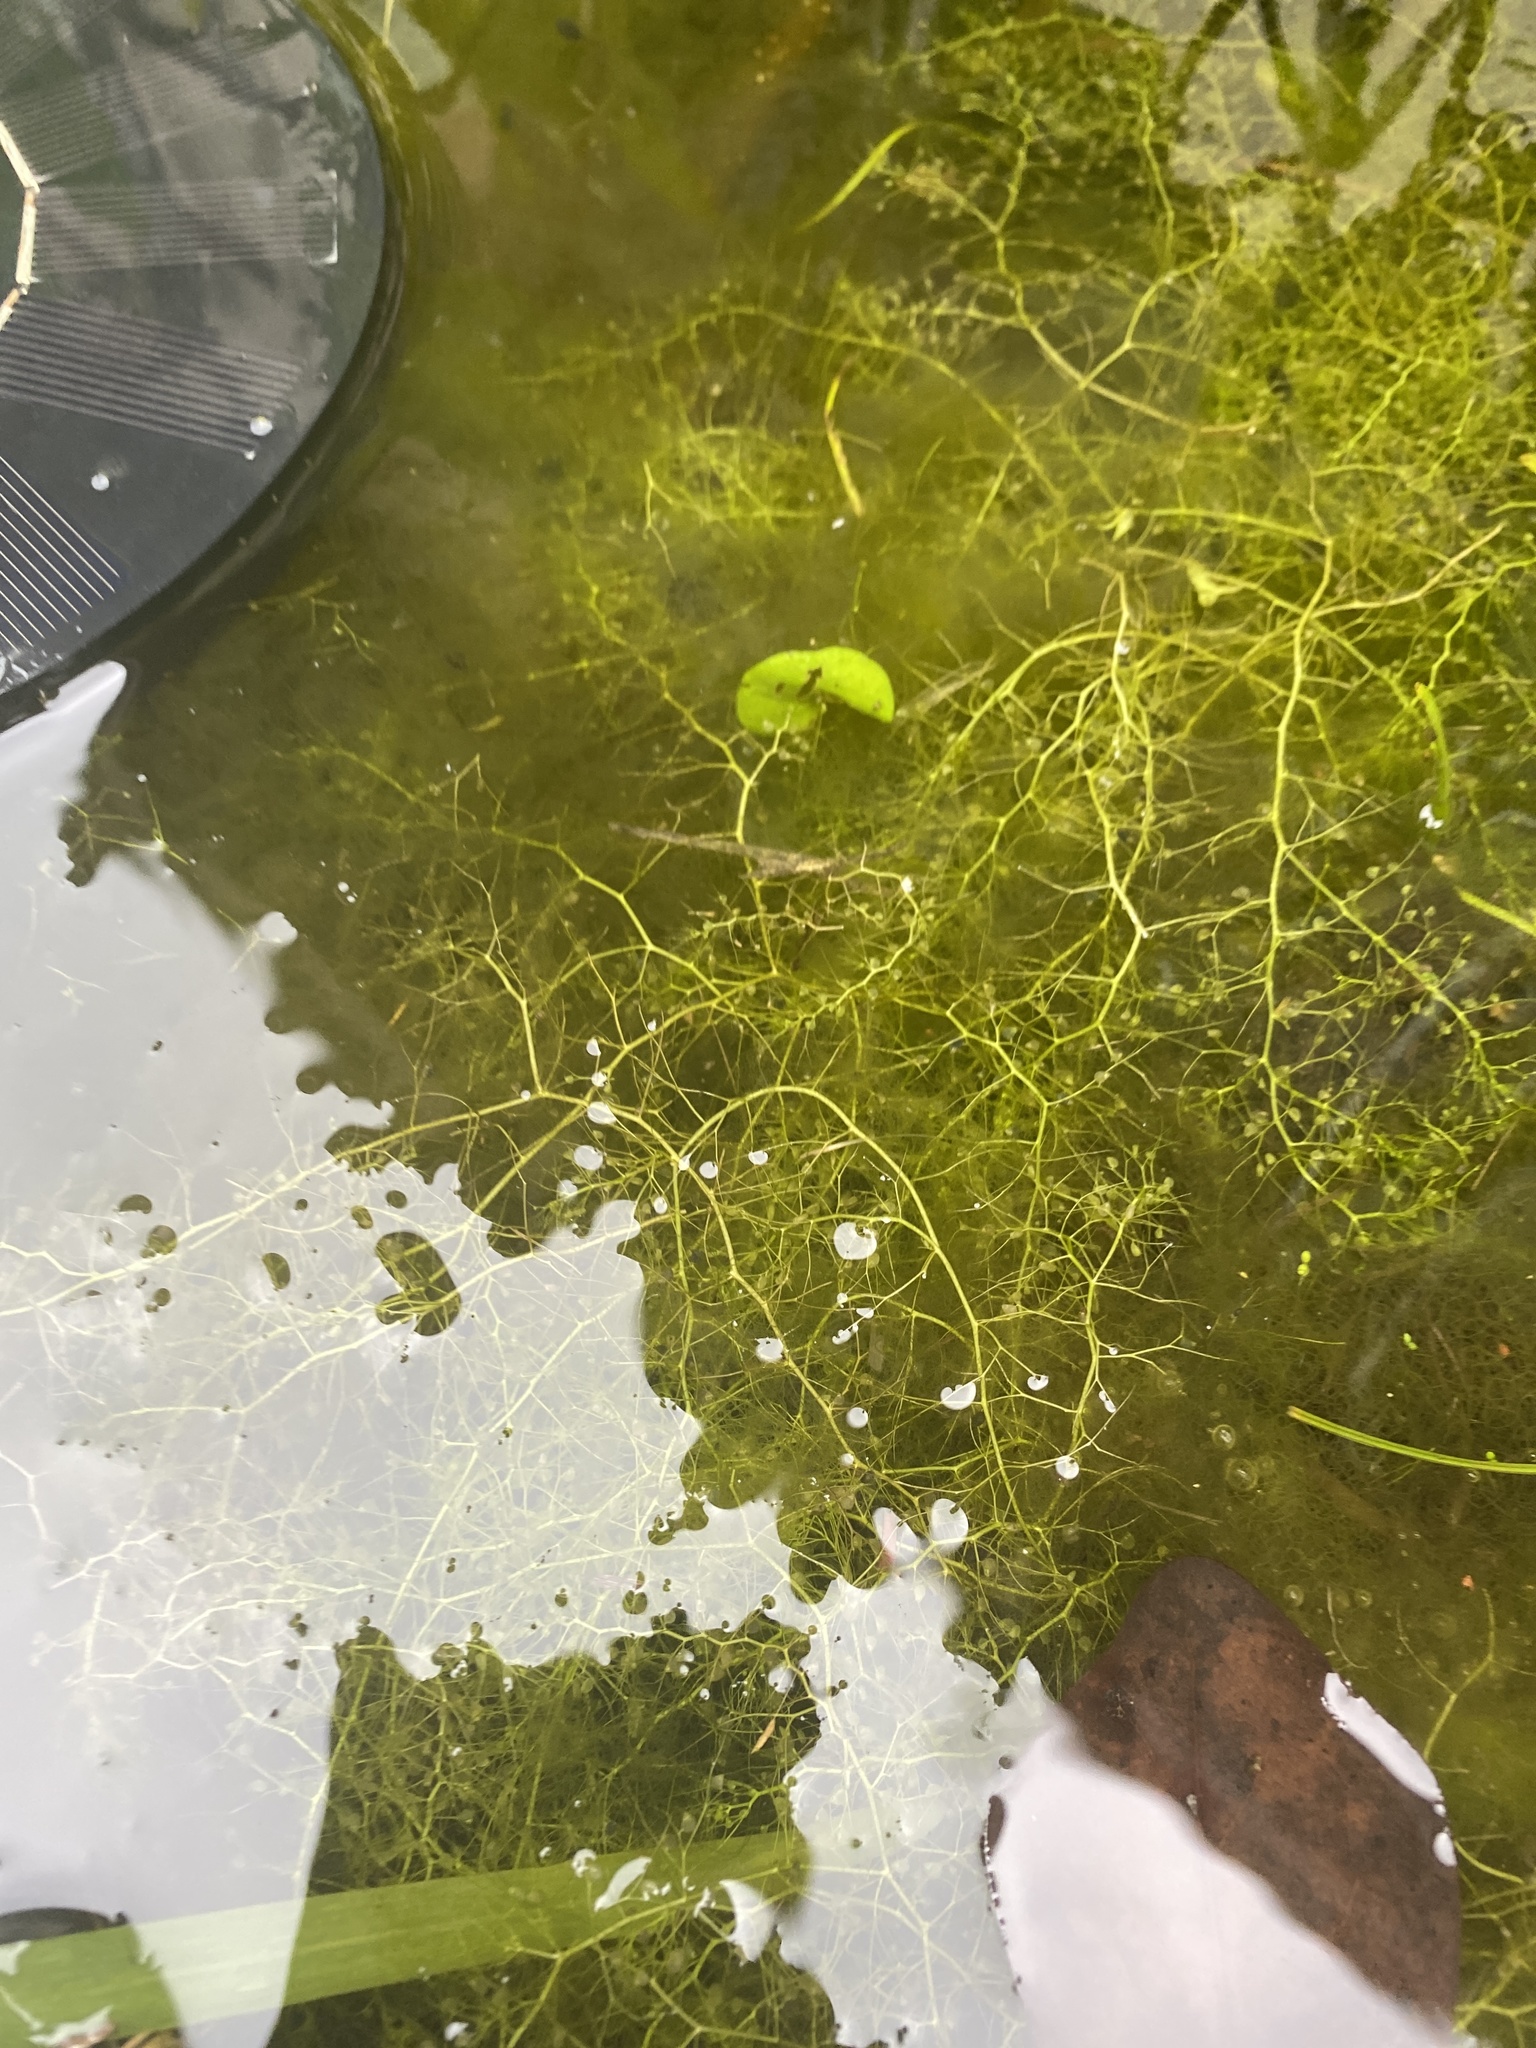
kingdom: Plantae
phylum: Tracheophyta
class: Magnoliopsida
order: Lamiales
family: Lentibulariaceae
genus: Utricularia
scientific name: Utricularia gibba
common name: Humped bladderwort
